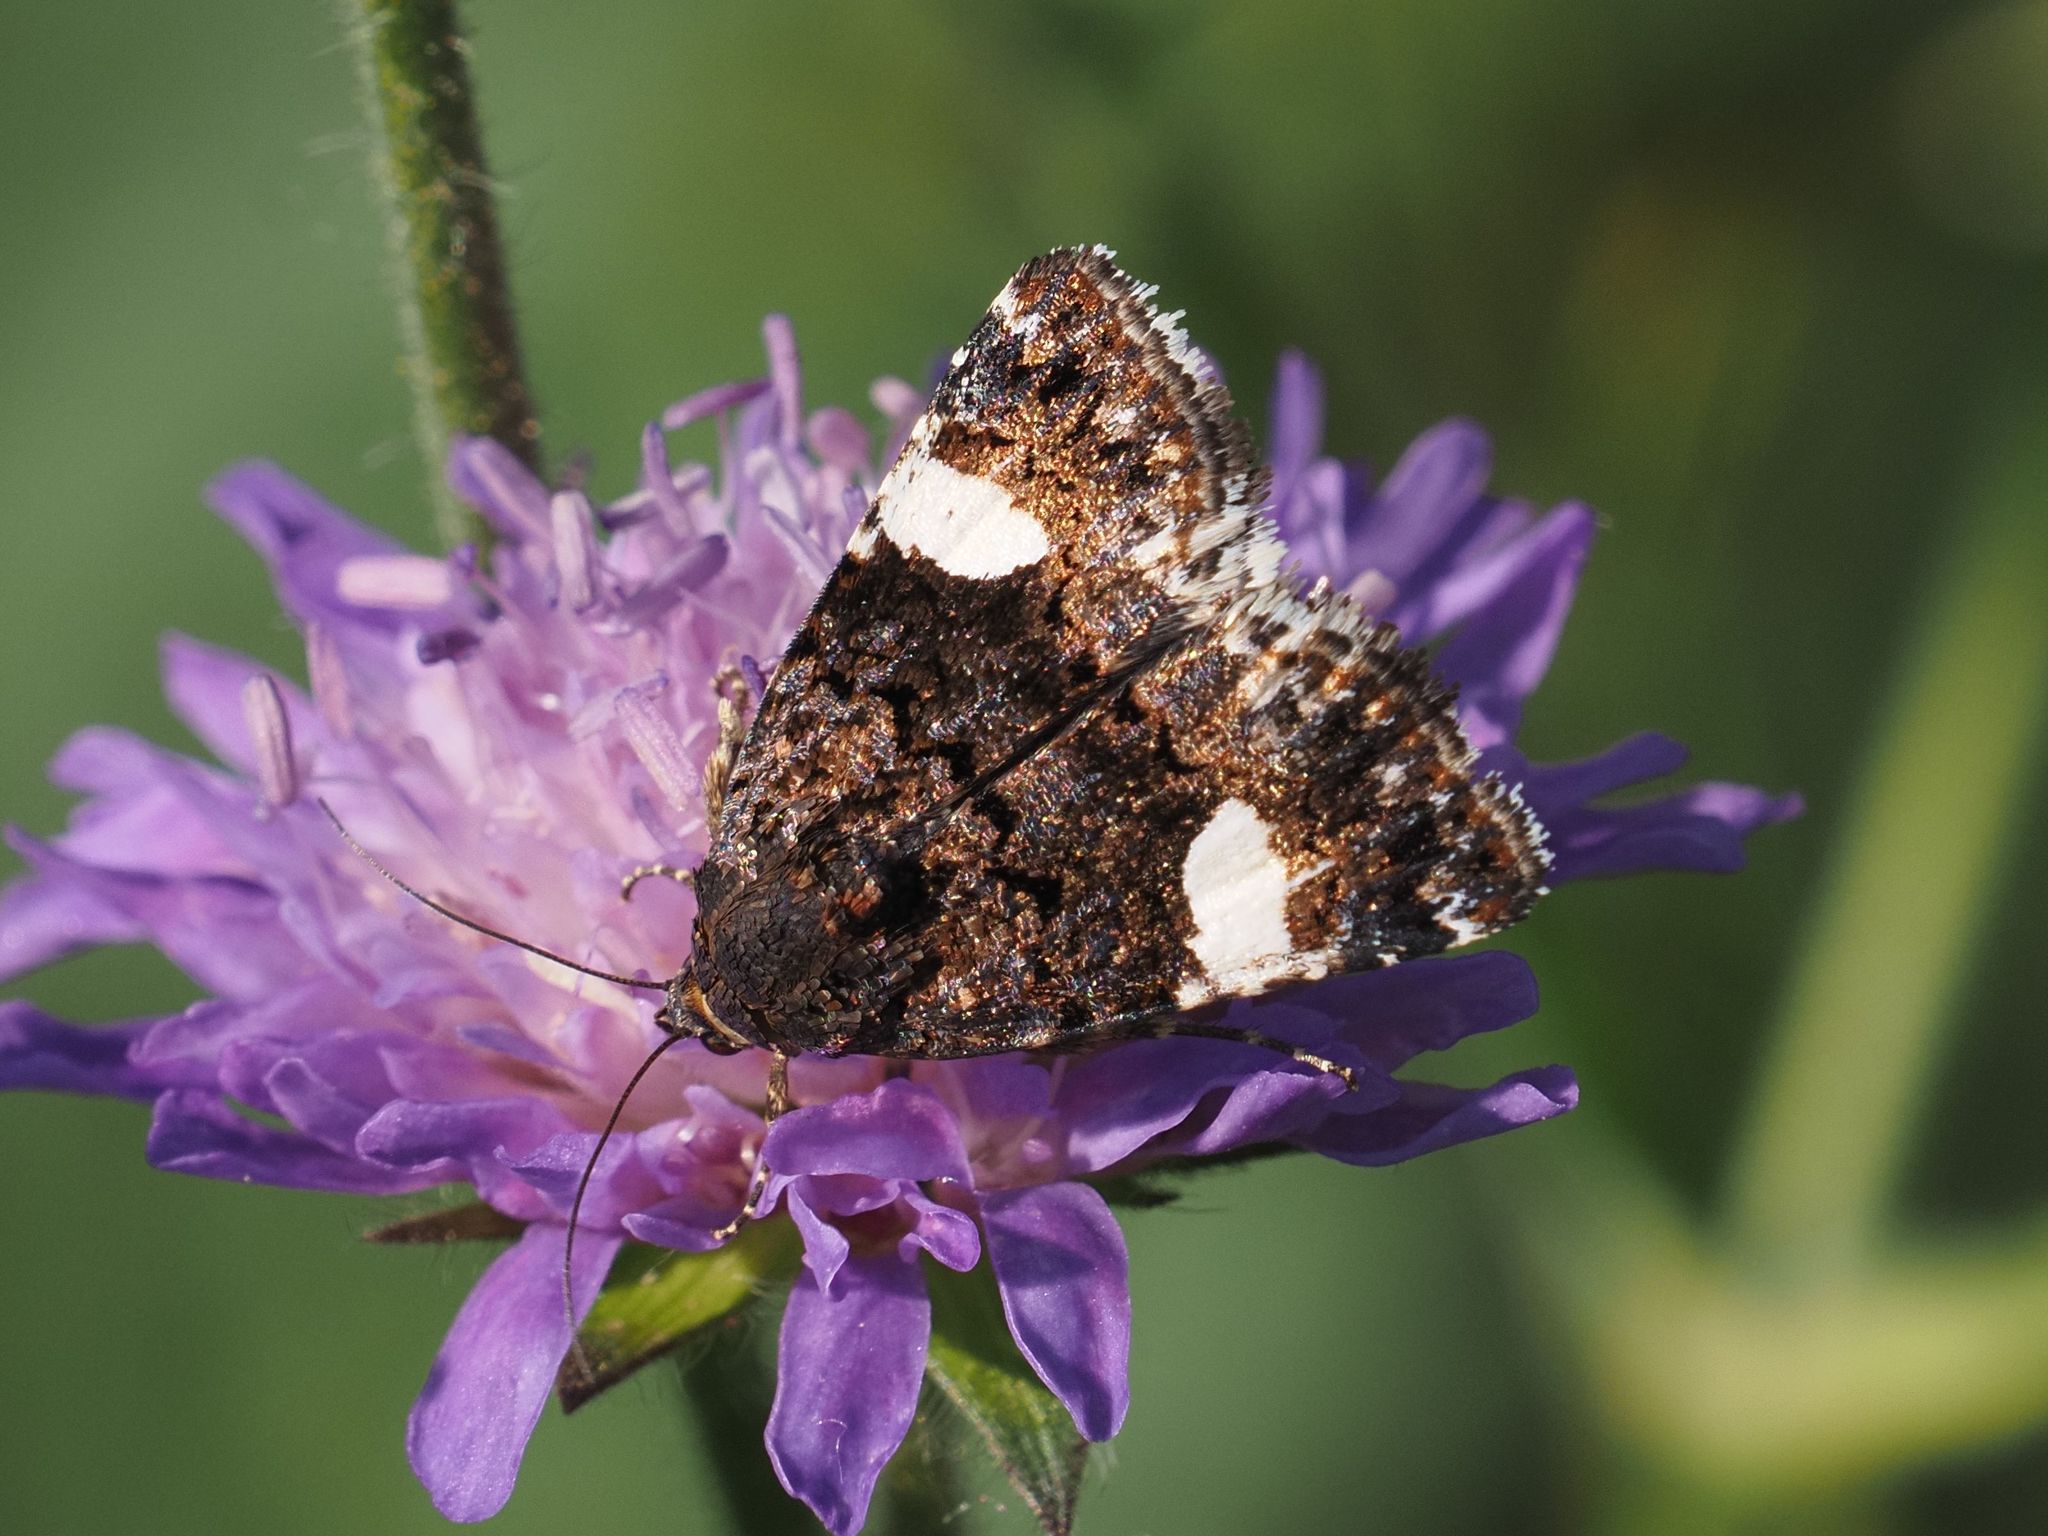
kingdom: Animalia
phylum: Arthropoda
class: Insecta
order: Lepidoptera
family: Erebidae
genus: Tyta
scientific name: Tyta luctuosa
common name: Four-spotted
